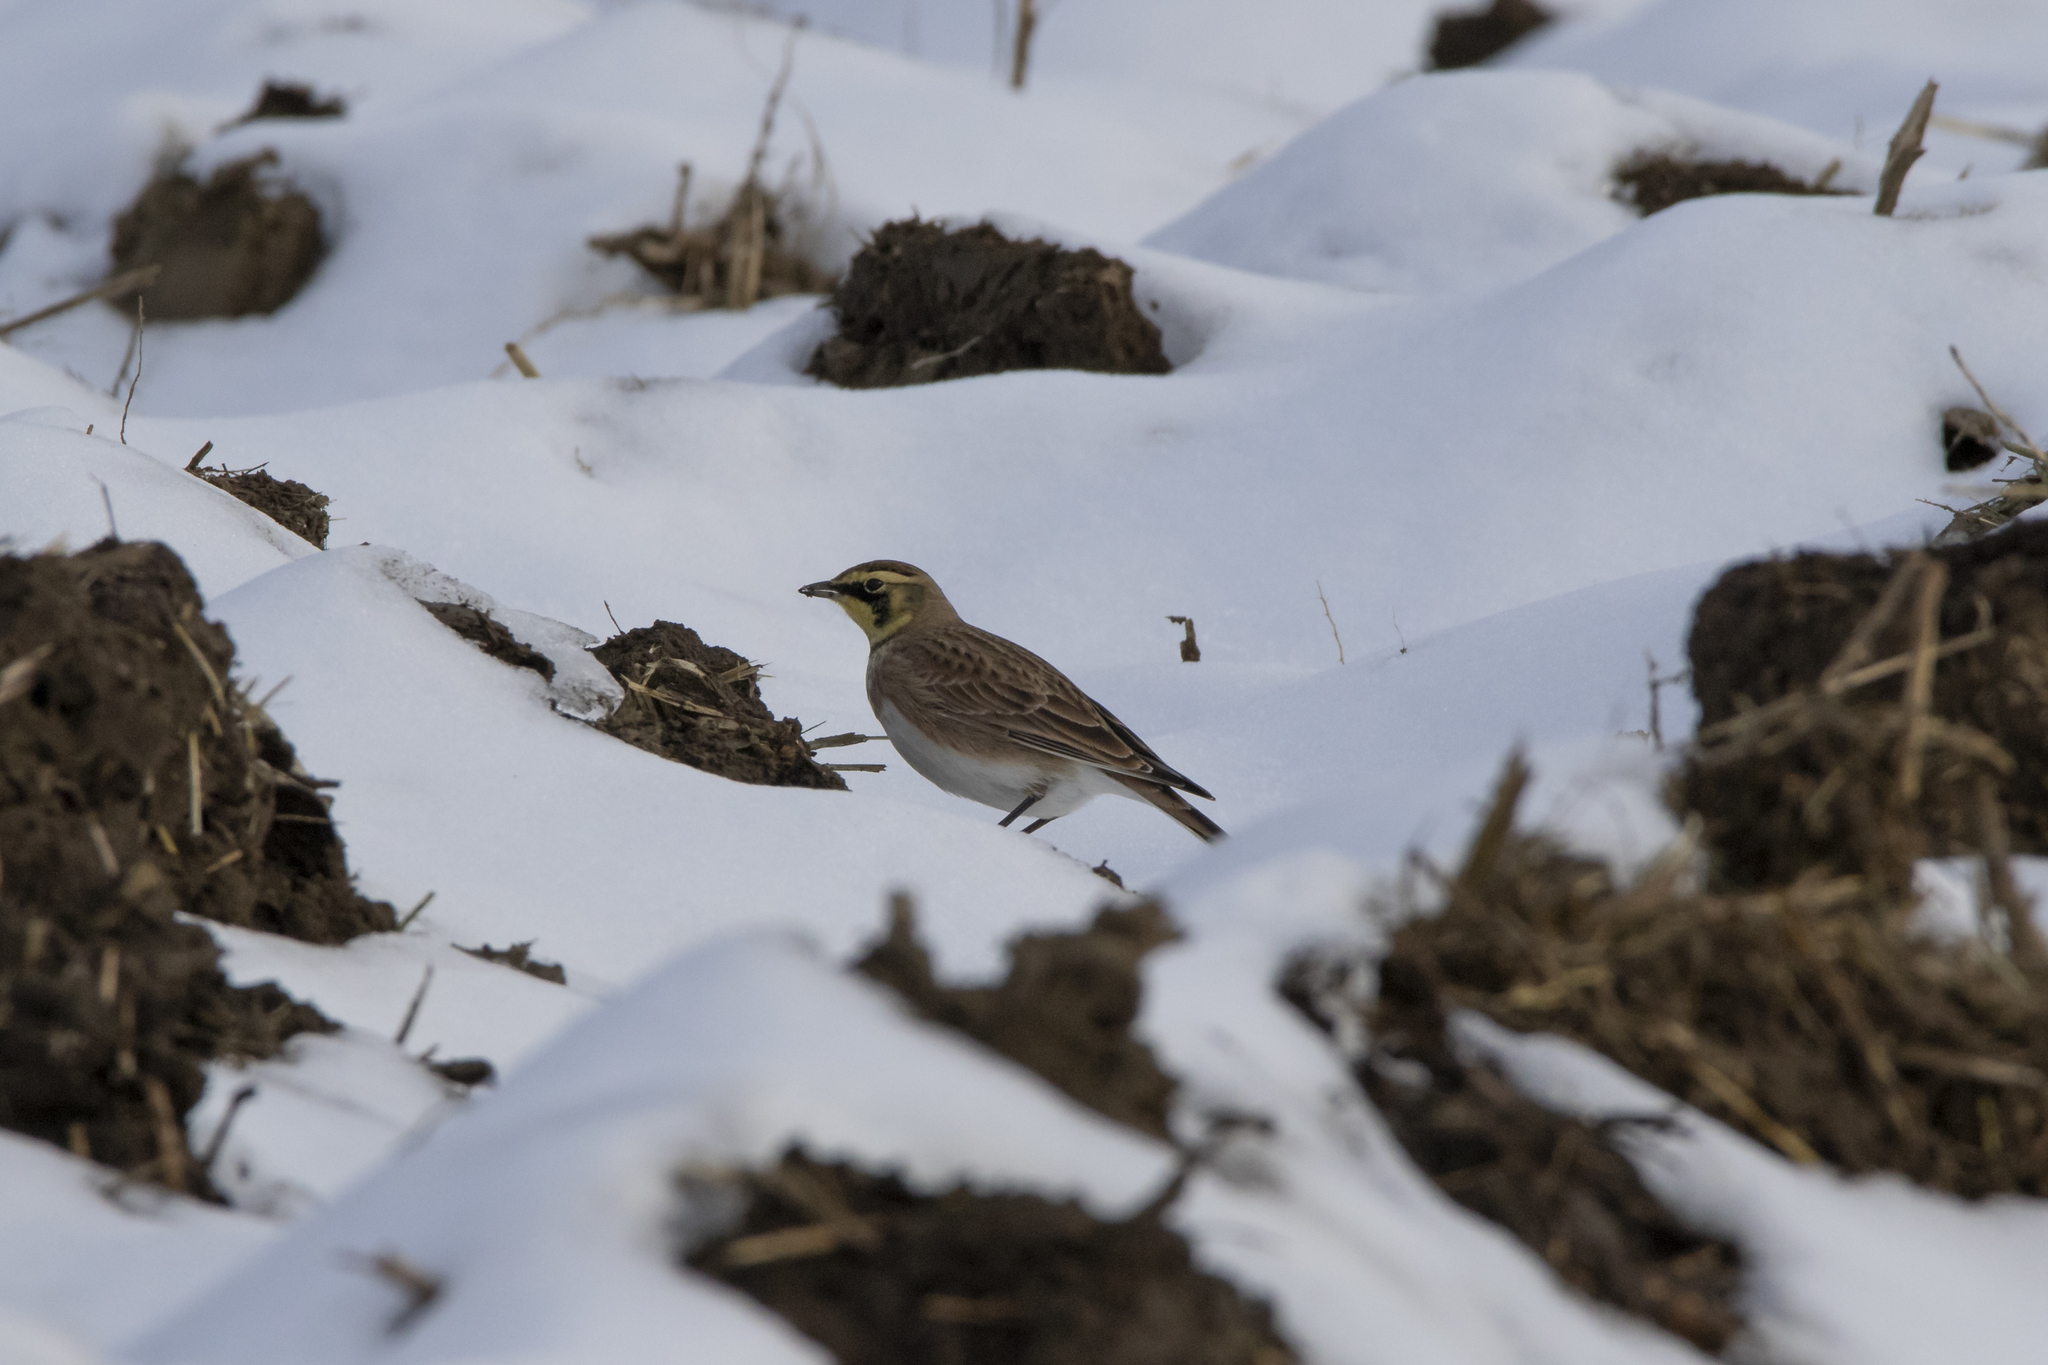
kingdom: Animalia
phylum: Chordata
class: Aves
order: Passeriformes
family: Alaudidae
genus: Eremophila
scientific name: Eremophila alpestris
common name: Horned lark
